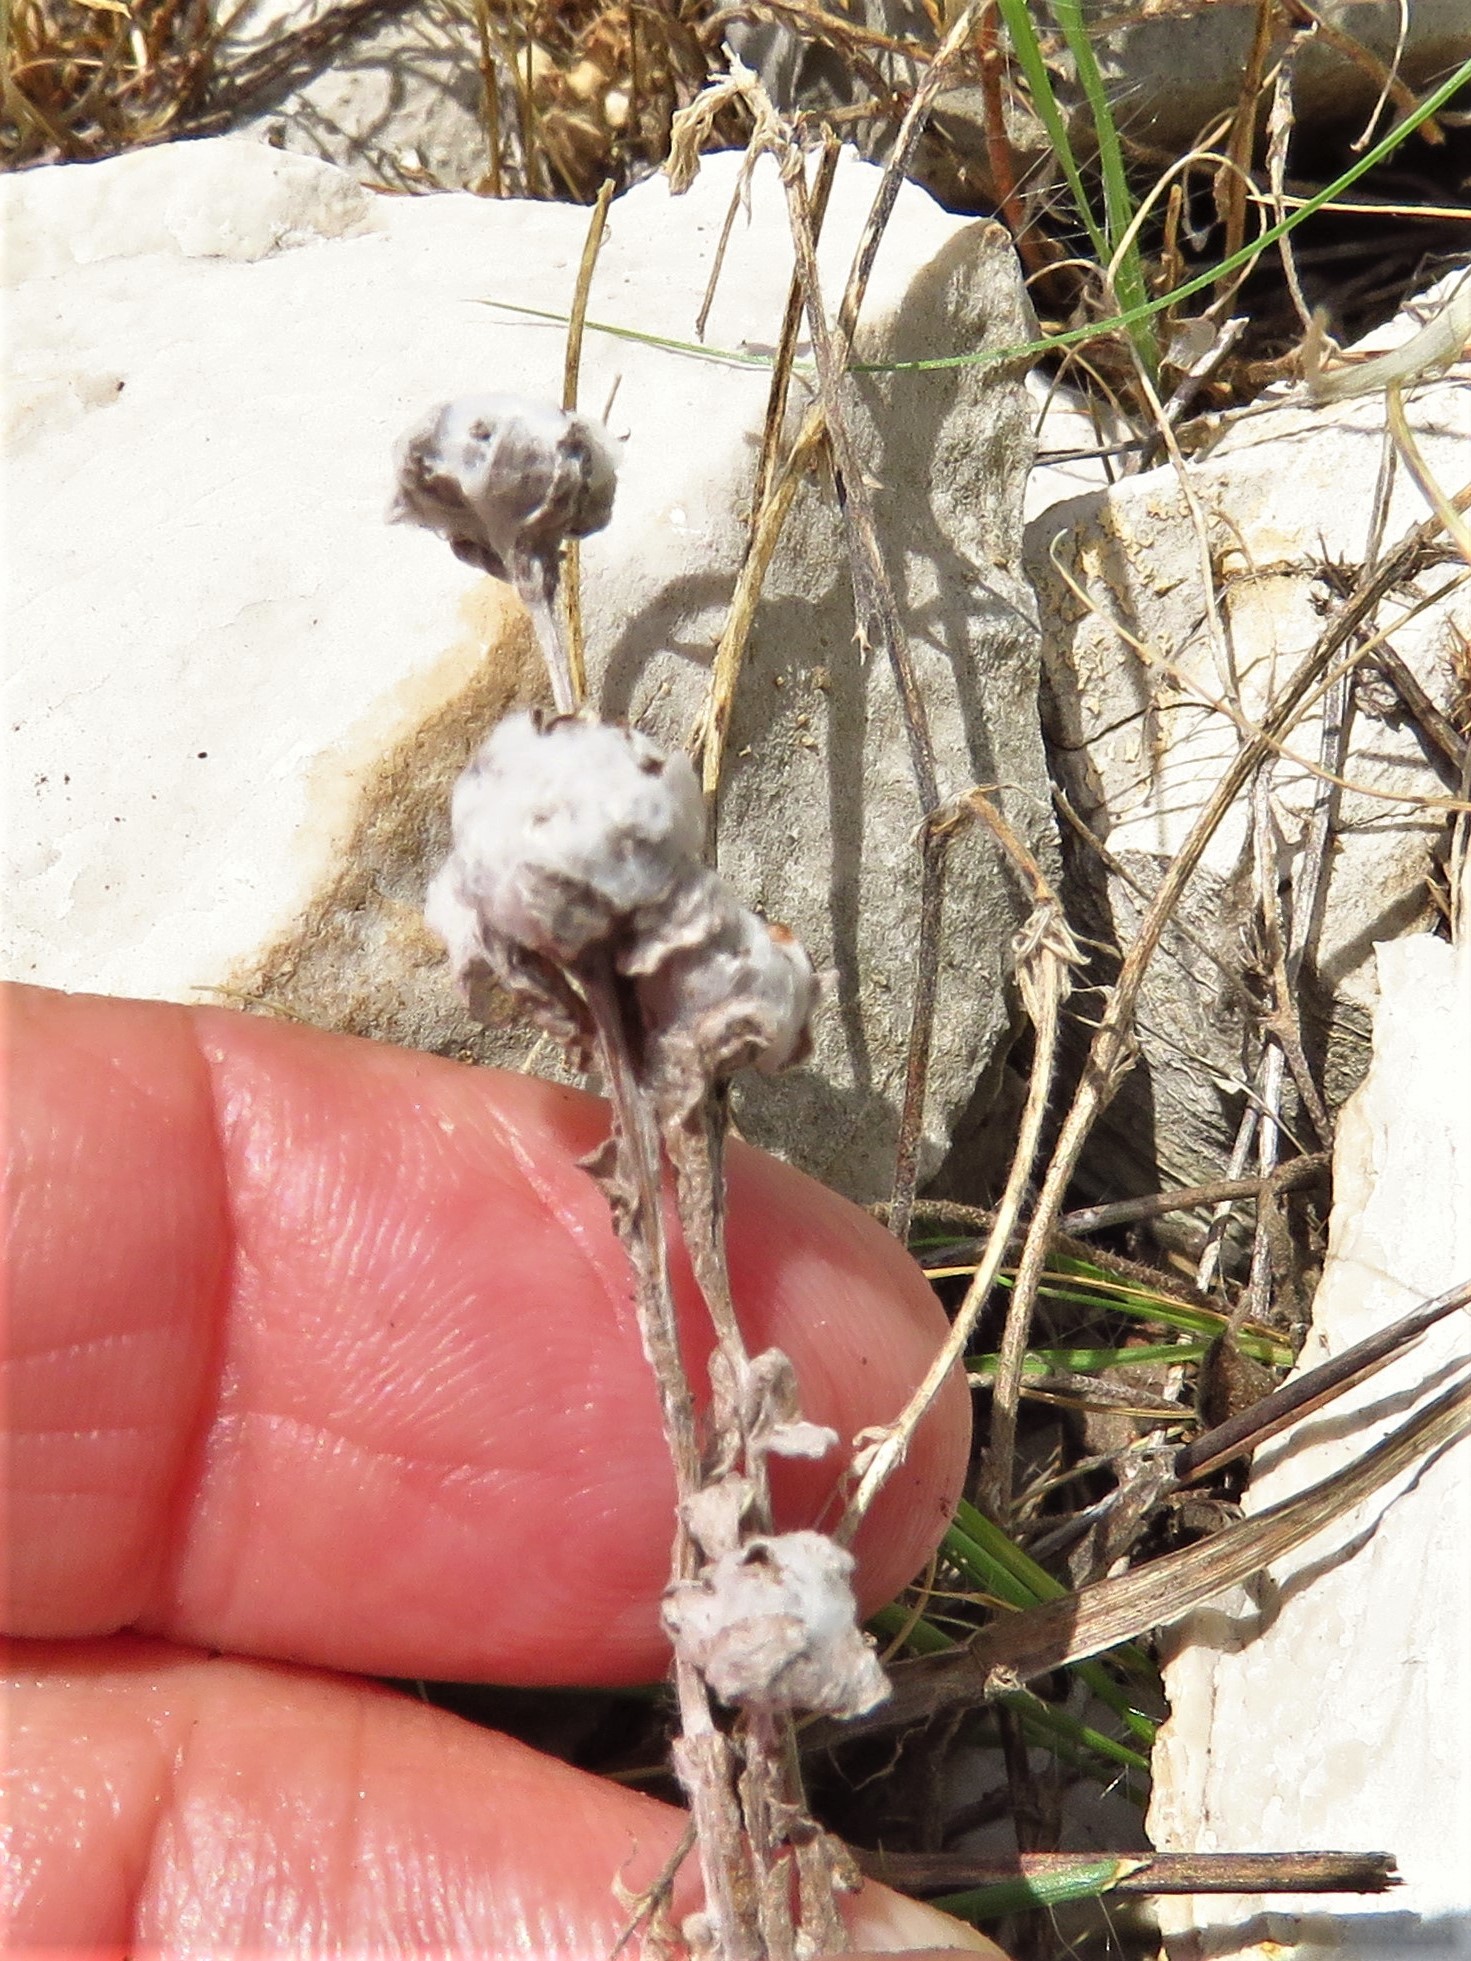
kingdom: Plantae
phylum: Tracheophyta
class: Magnoliopsida
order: Asterales
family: Asteraceae
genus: Diaperia
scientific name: Diaperia verna
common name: Many-stem rabbit-tobacco
